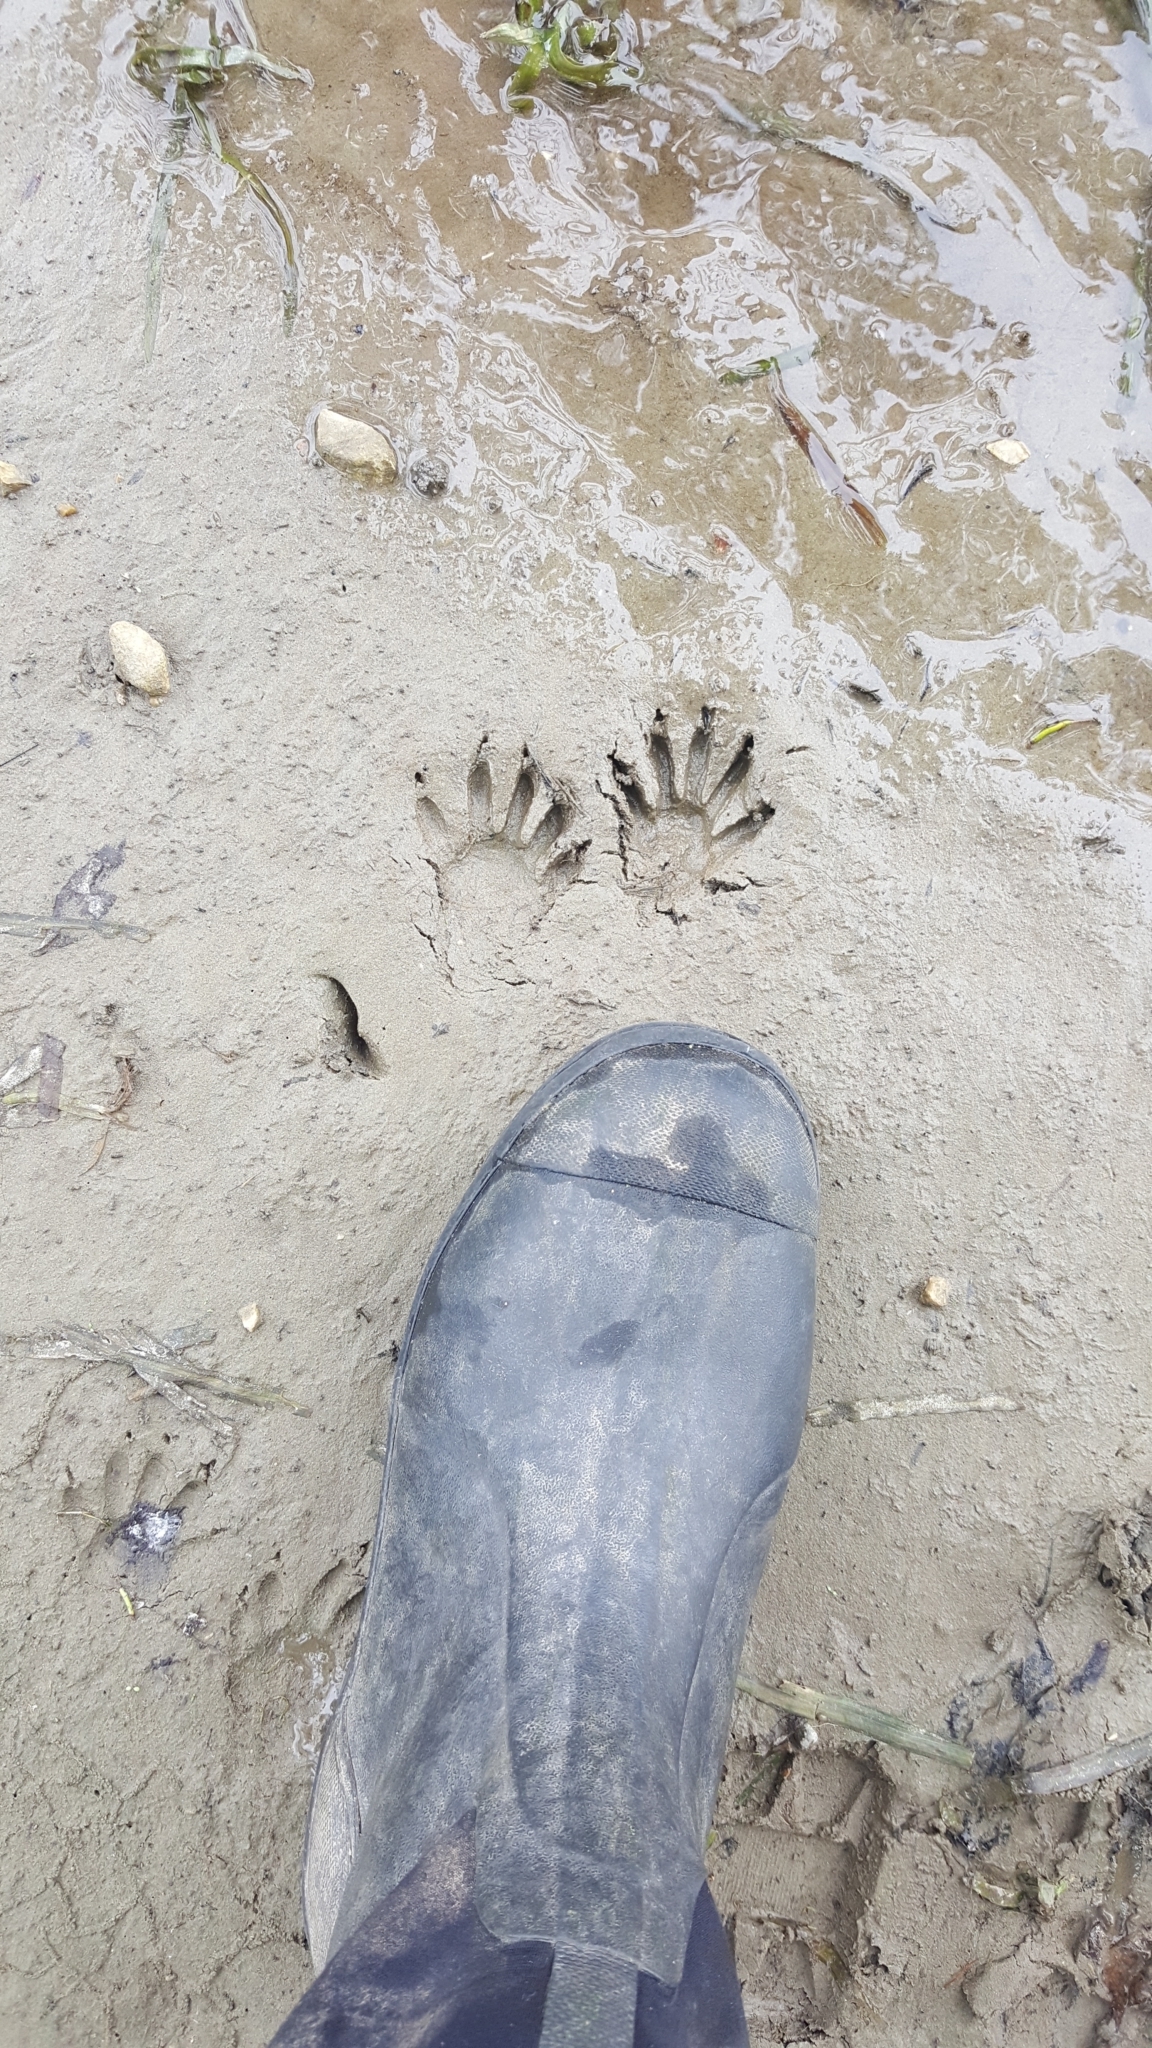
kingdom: Animalia
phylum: Chordata
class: Mammalia
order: Carnivora
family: Procyonidae
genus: Procyon
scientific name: Procyon lotor
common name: Raccoon
